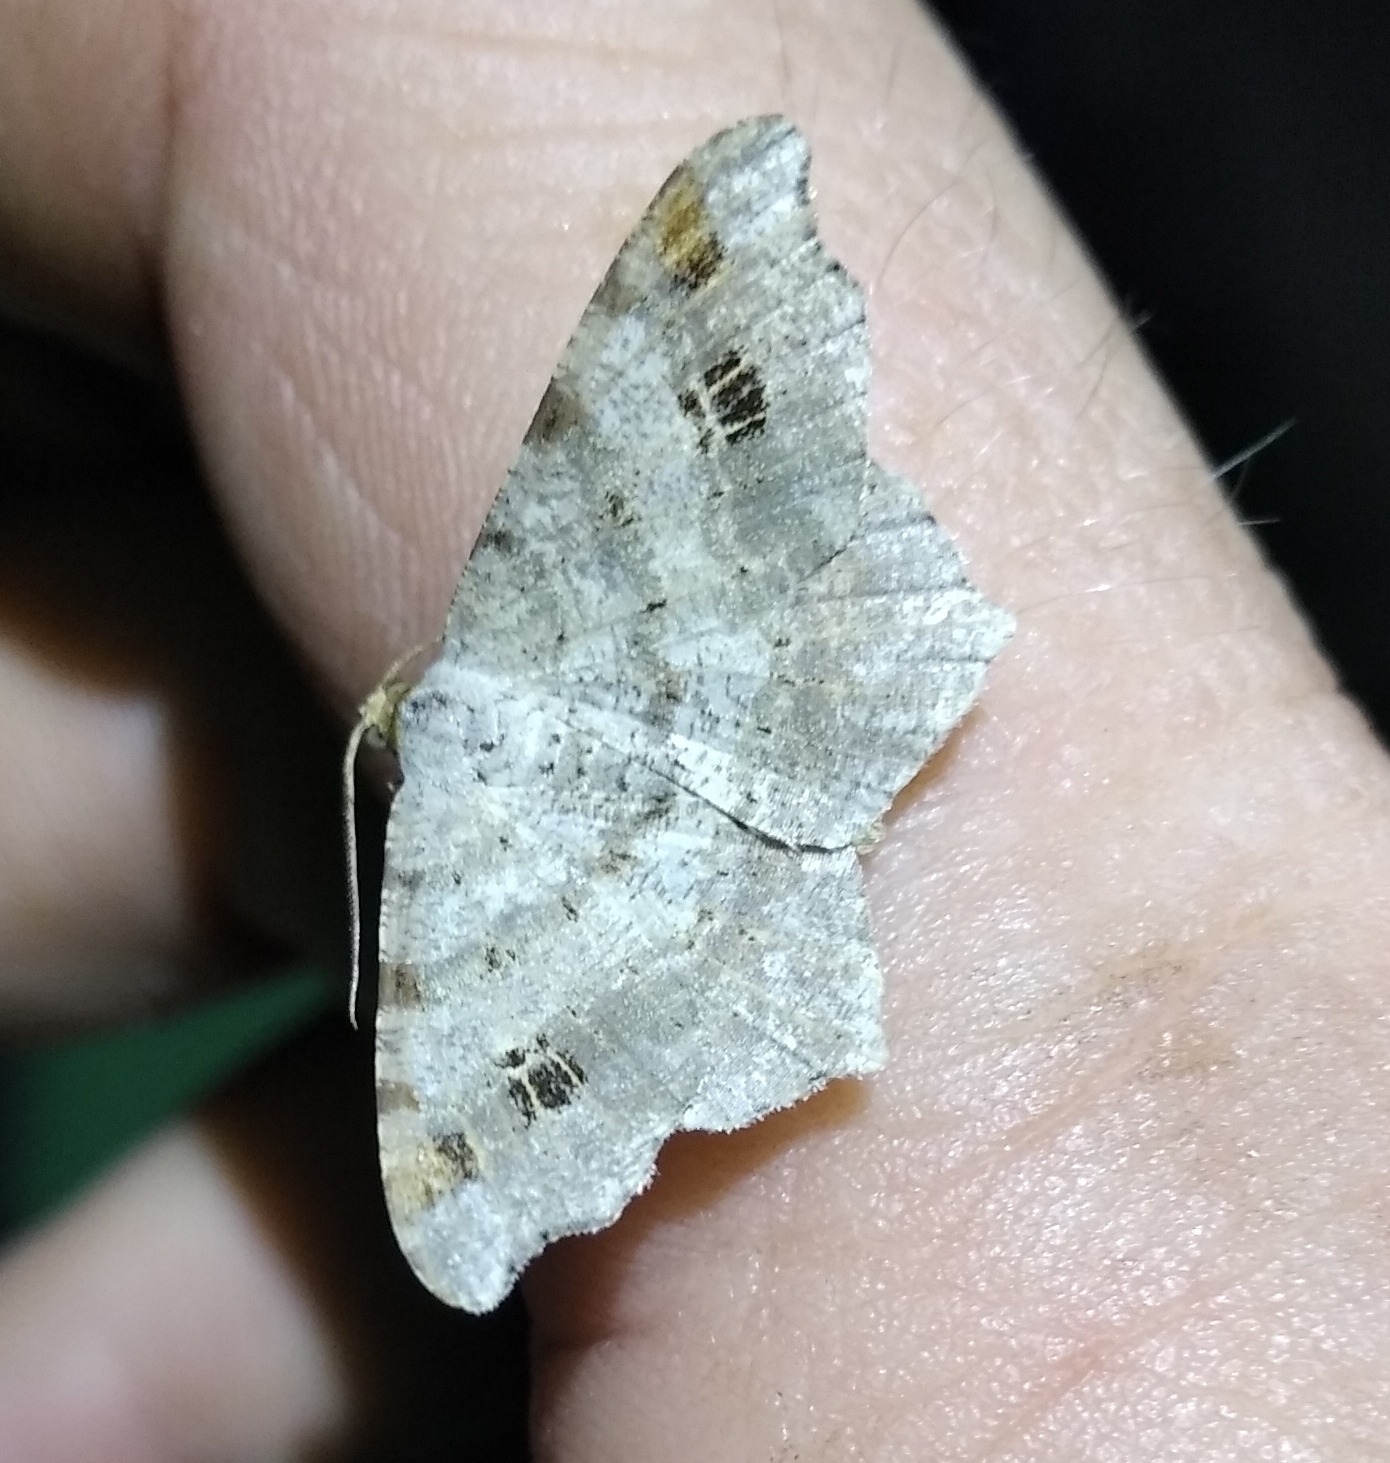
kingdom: Animalia
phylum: Arthropoda
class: Insecta
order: Lepidoptera
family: Geometridae
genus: Macaria
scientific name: Macaria alternata
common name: Sharp-angled peacock
